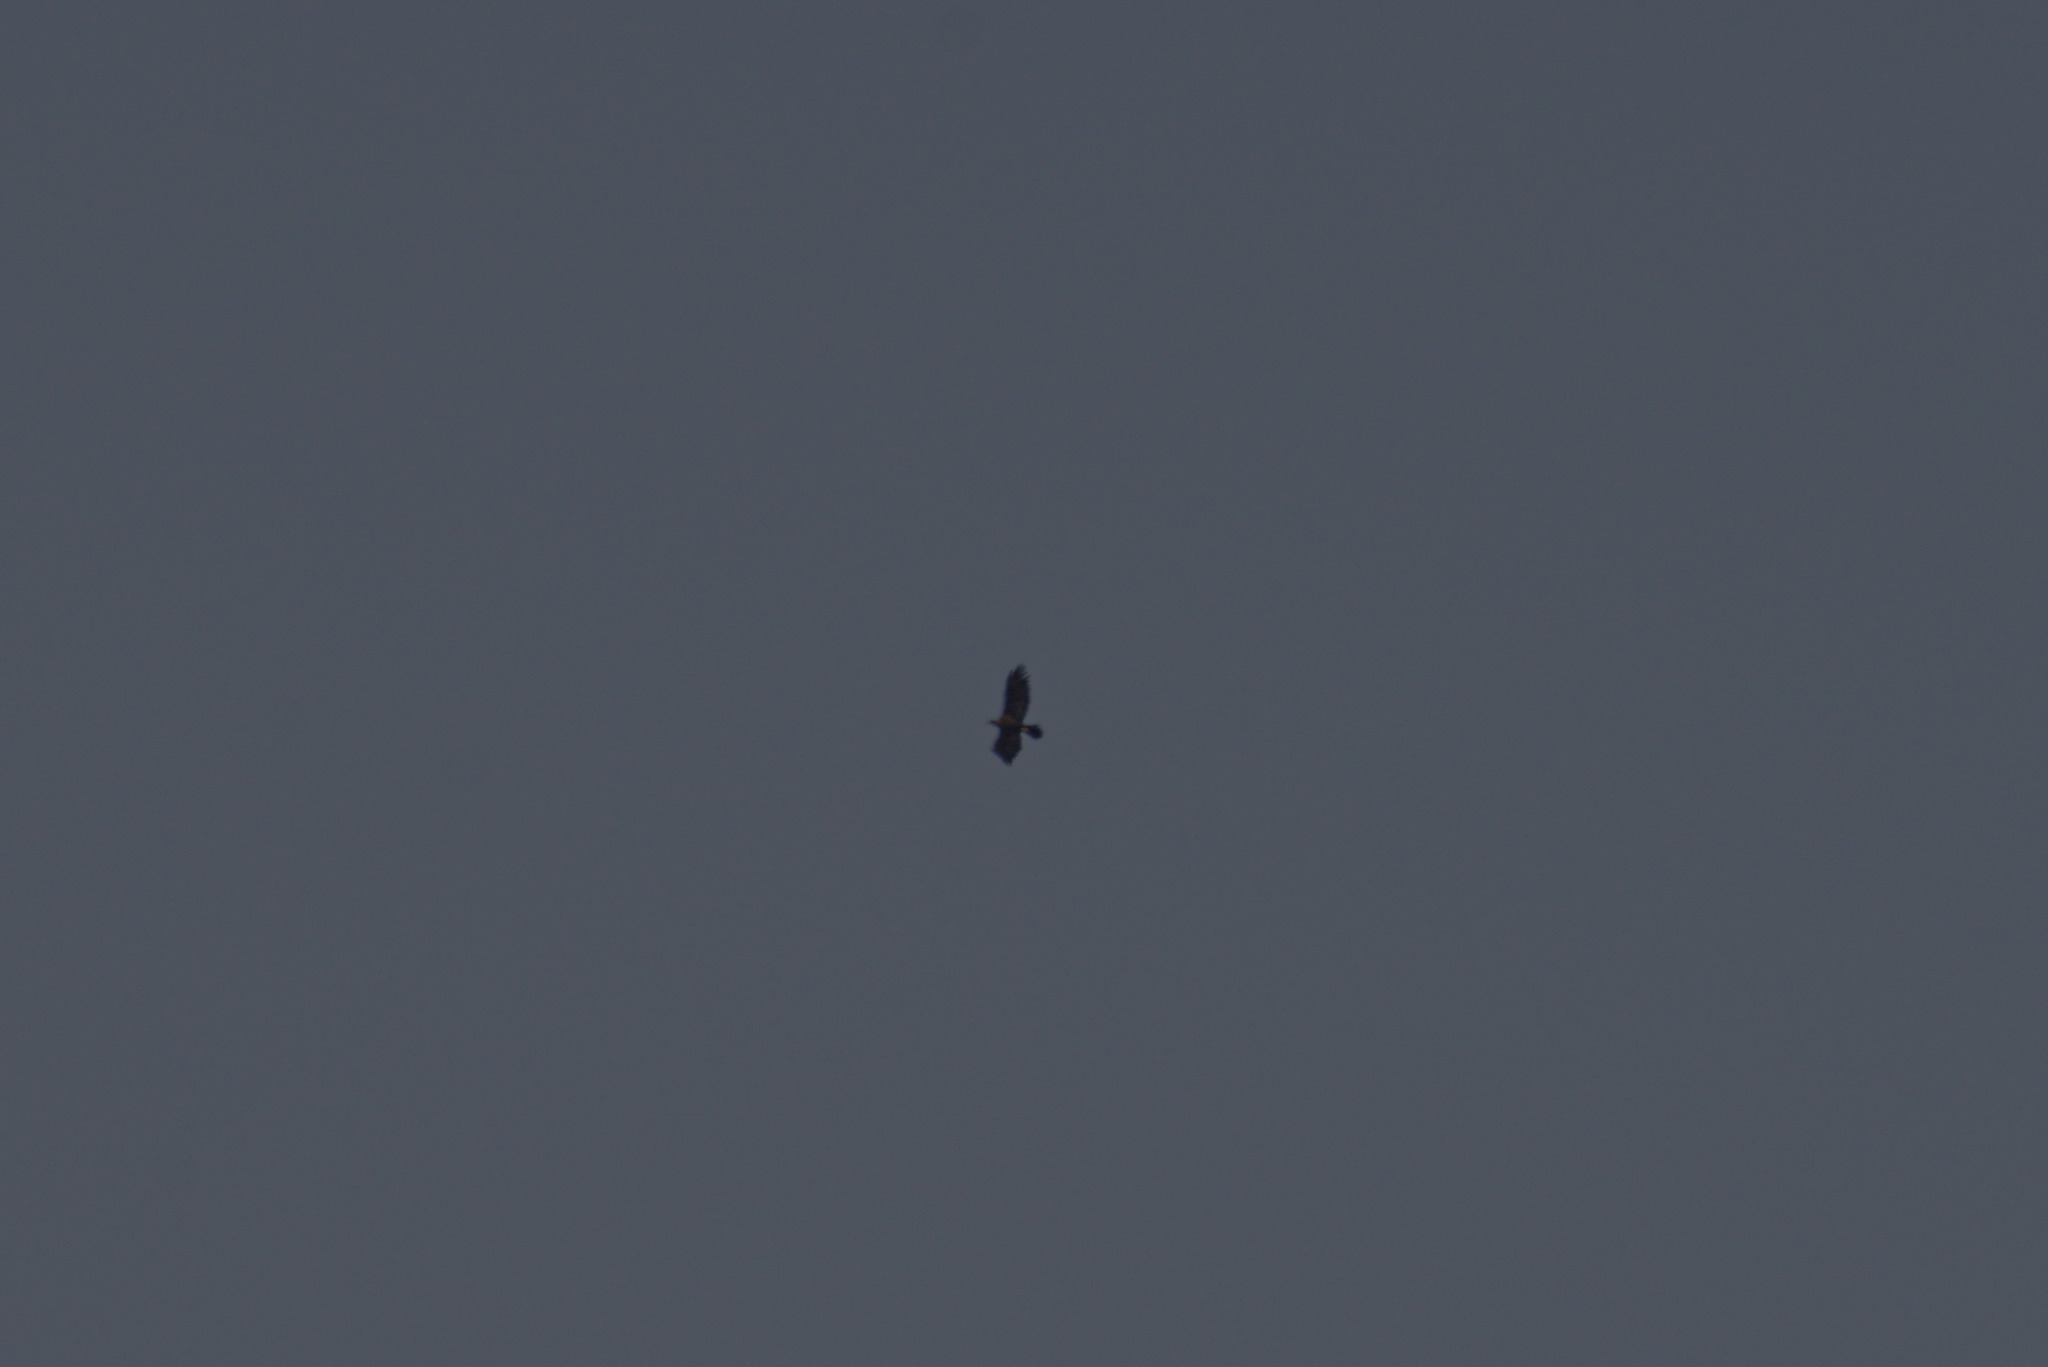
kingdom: Animalia
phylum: Chordata
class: Aves
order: Accipitriformes
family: Accipitridae
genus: Aquila
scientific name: Aquila chrysaetos
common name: Golden eagle
